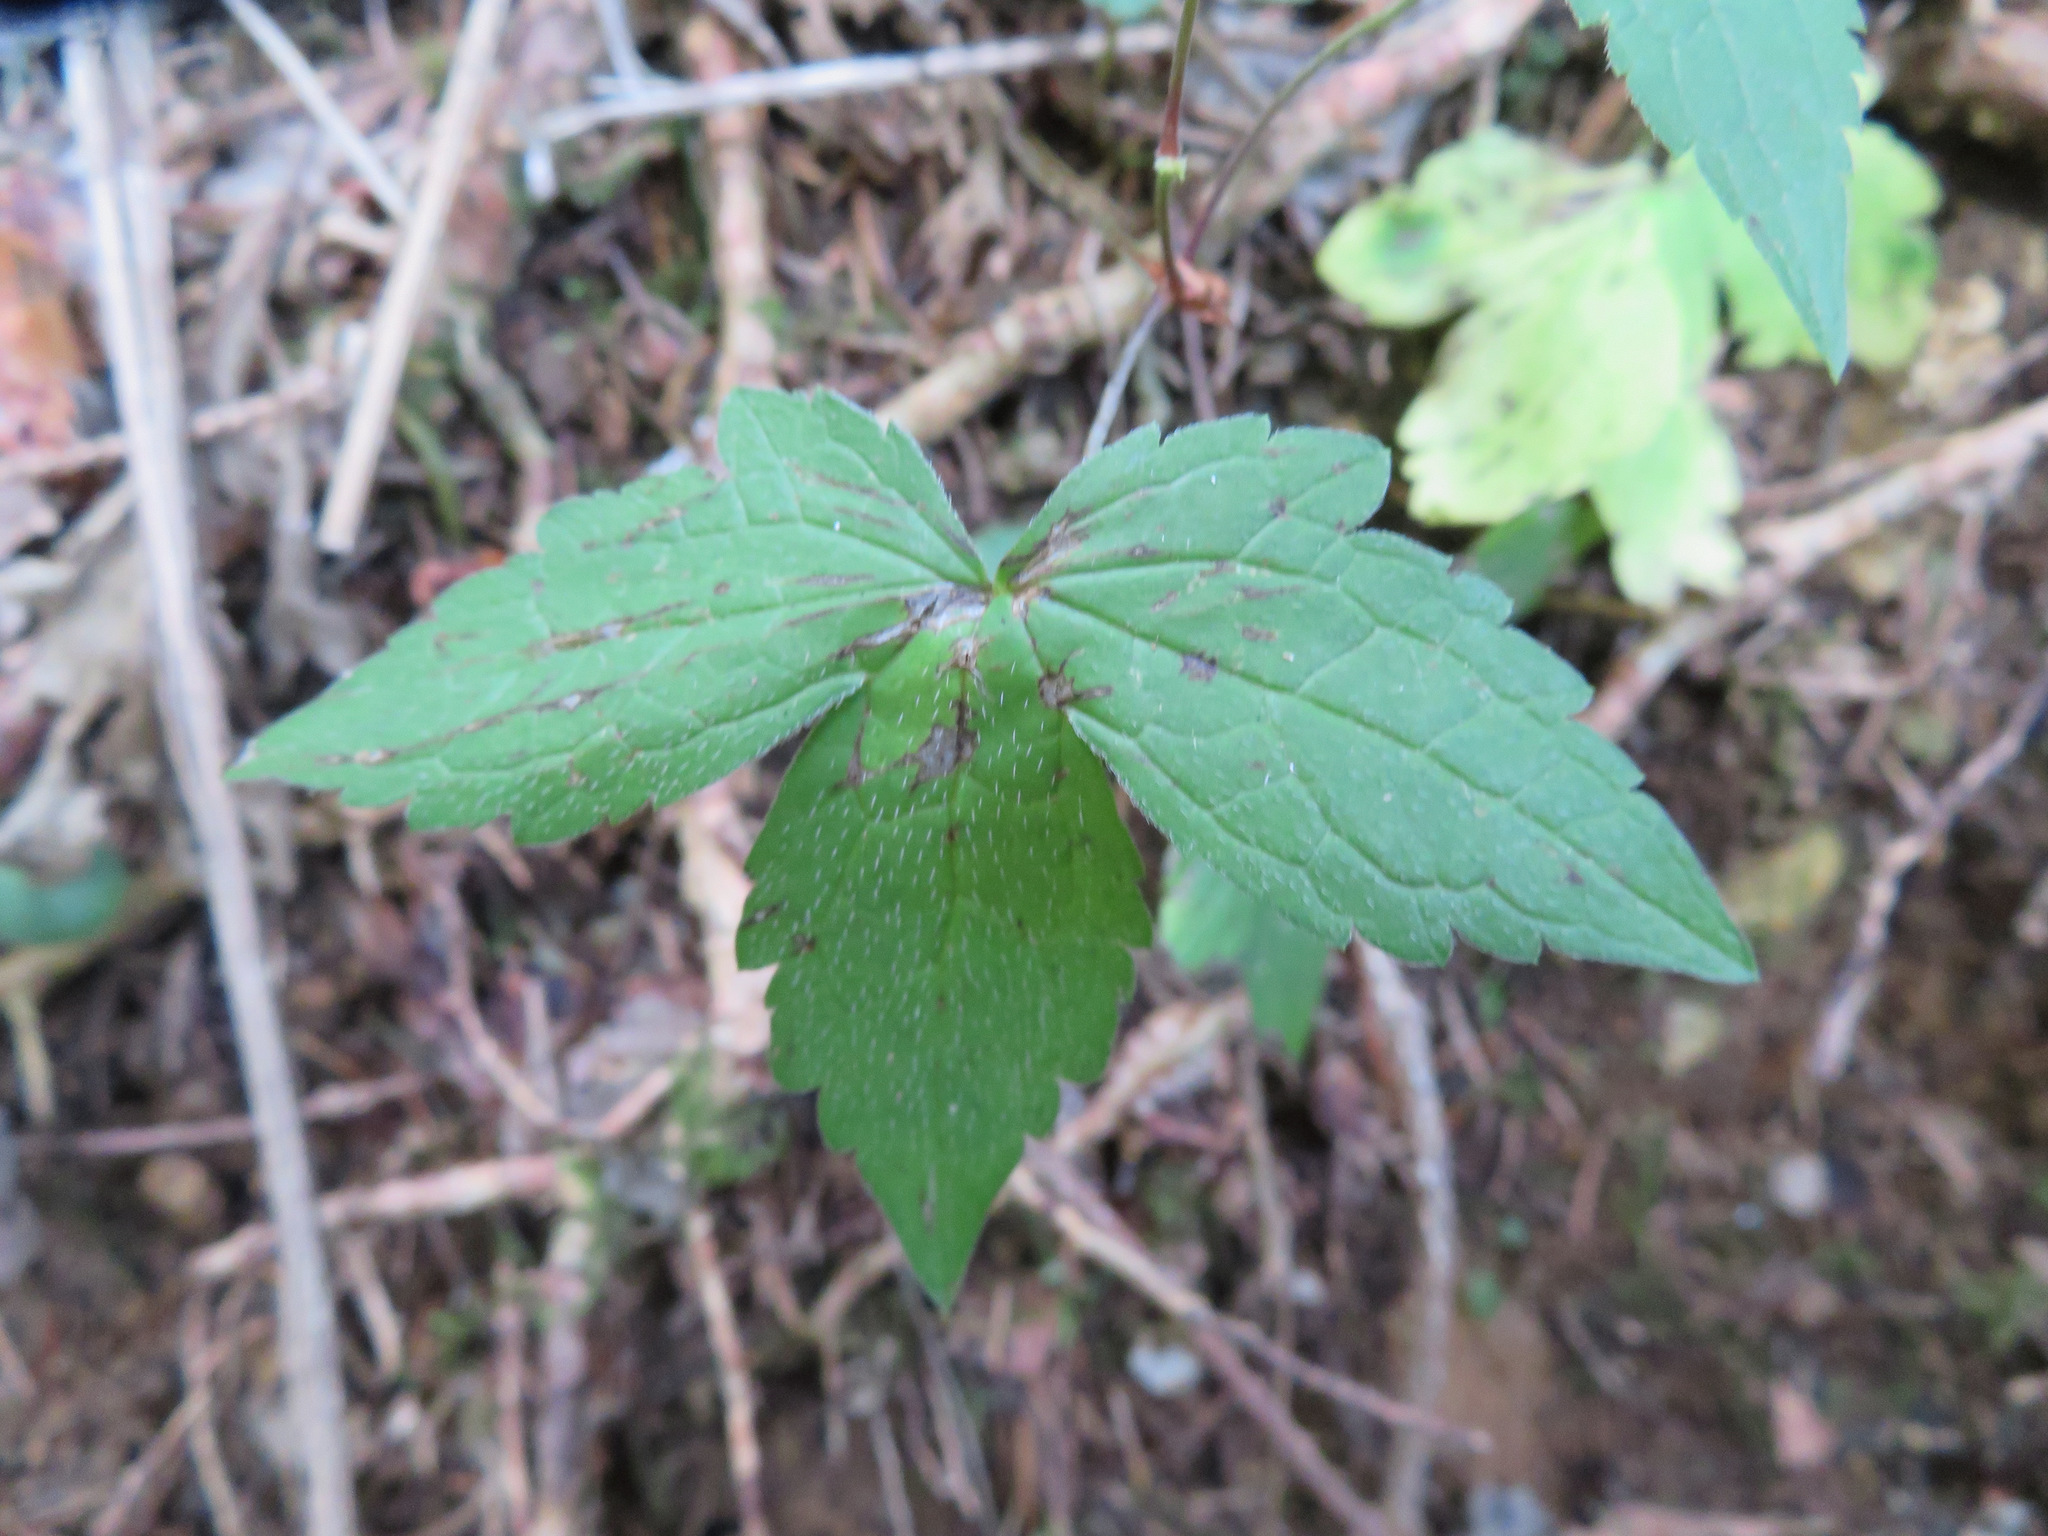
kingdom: Plantae
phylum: Tracheophyta
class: Magnoliopsida
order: Geraniales
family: Geraniaceae
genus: Geranium
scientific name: Geranium nodosum
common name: Knotted crane's-bill
